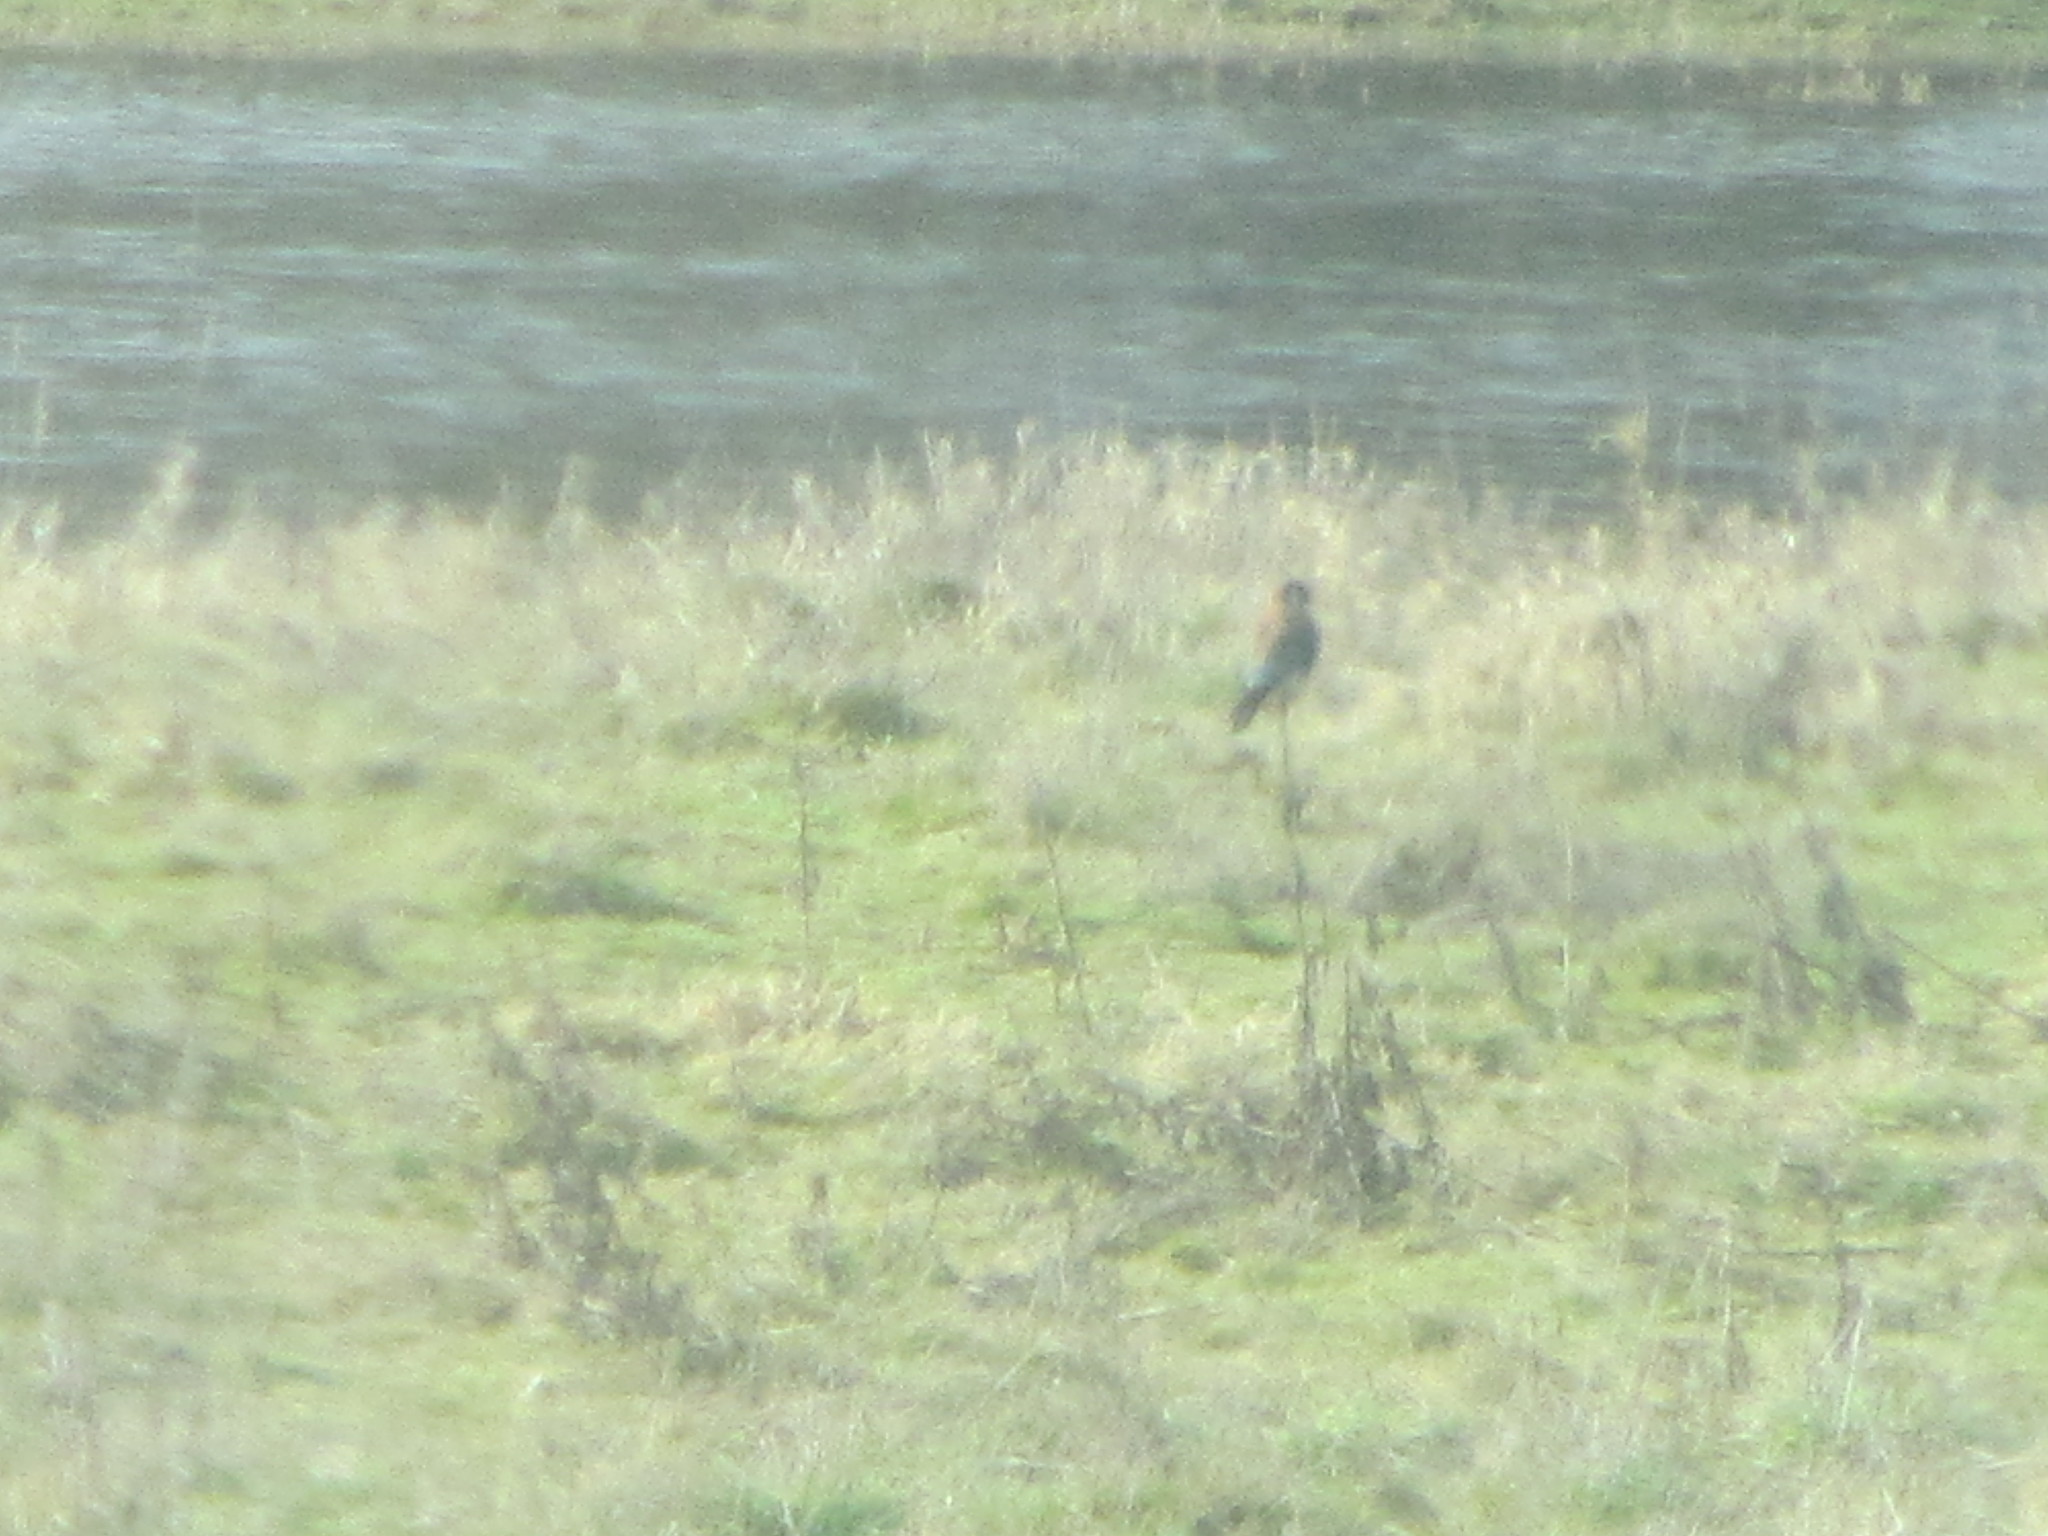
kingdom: Animalia
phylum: Chordata
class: Aves
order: Falconiformes
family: Falconidae
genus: Falco
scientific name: Falco sparverius
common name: American kestrel
